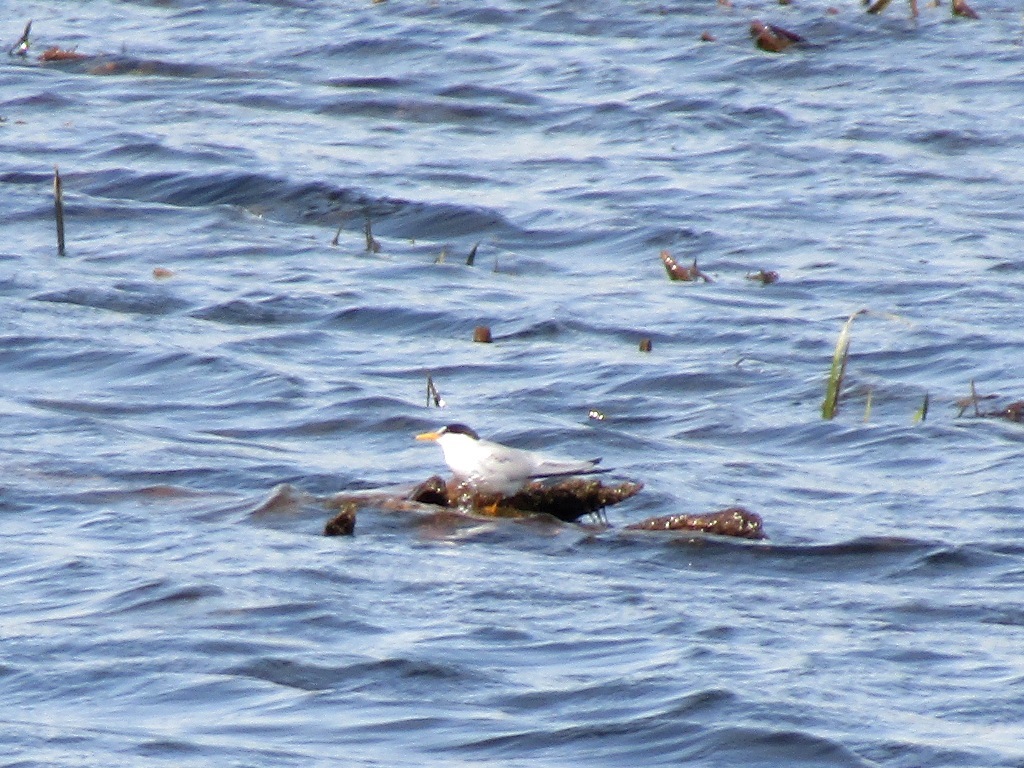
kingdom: Animalia
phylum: Chordata
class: Aves
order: Charadriiformes
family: Laridae
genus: Sternula
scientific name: Sternula albifrons
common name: Little tern
